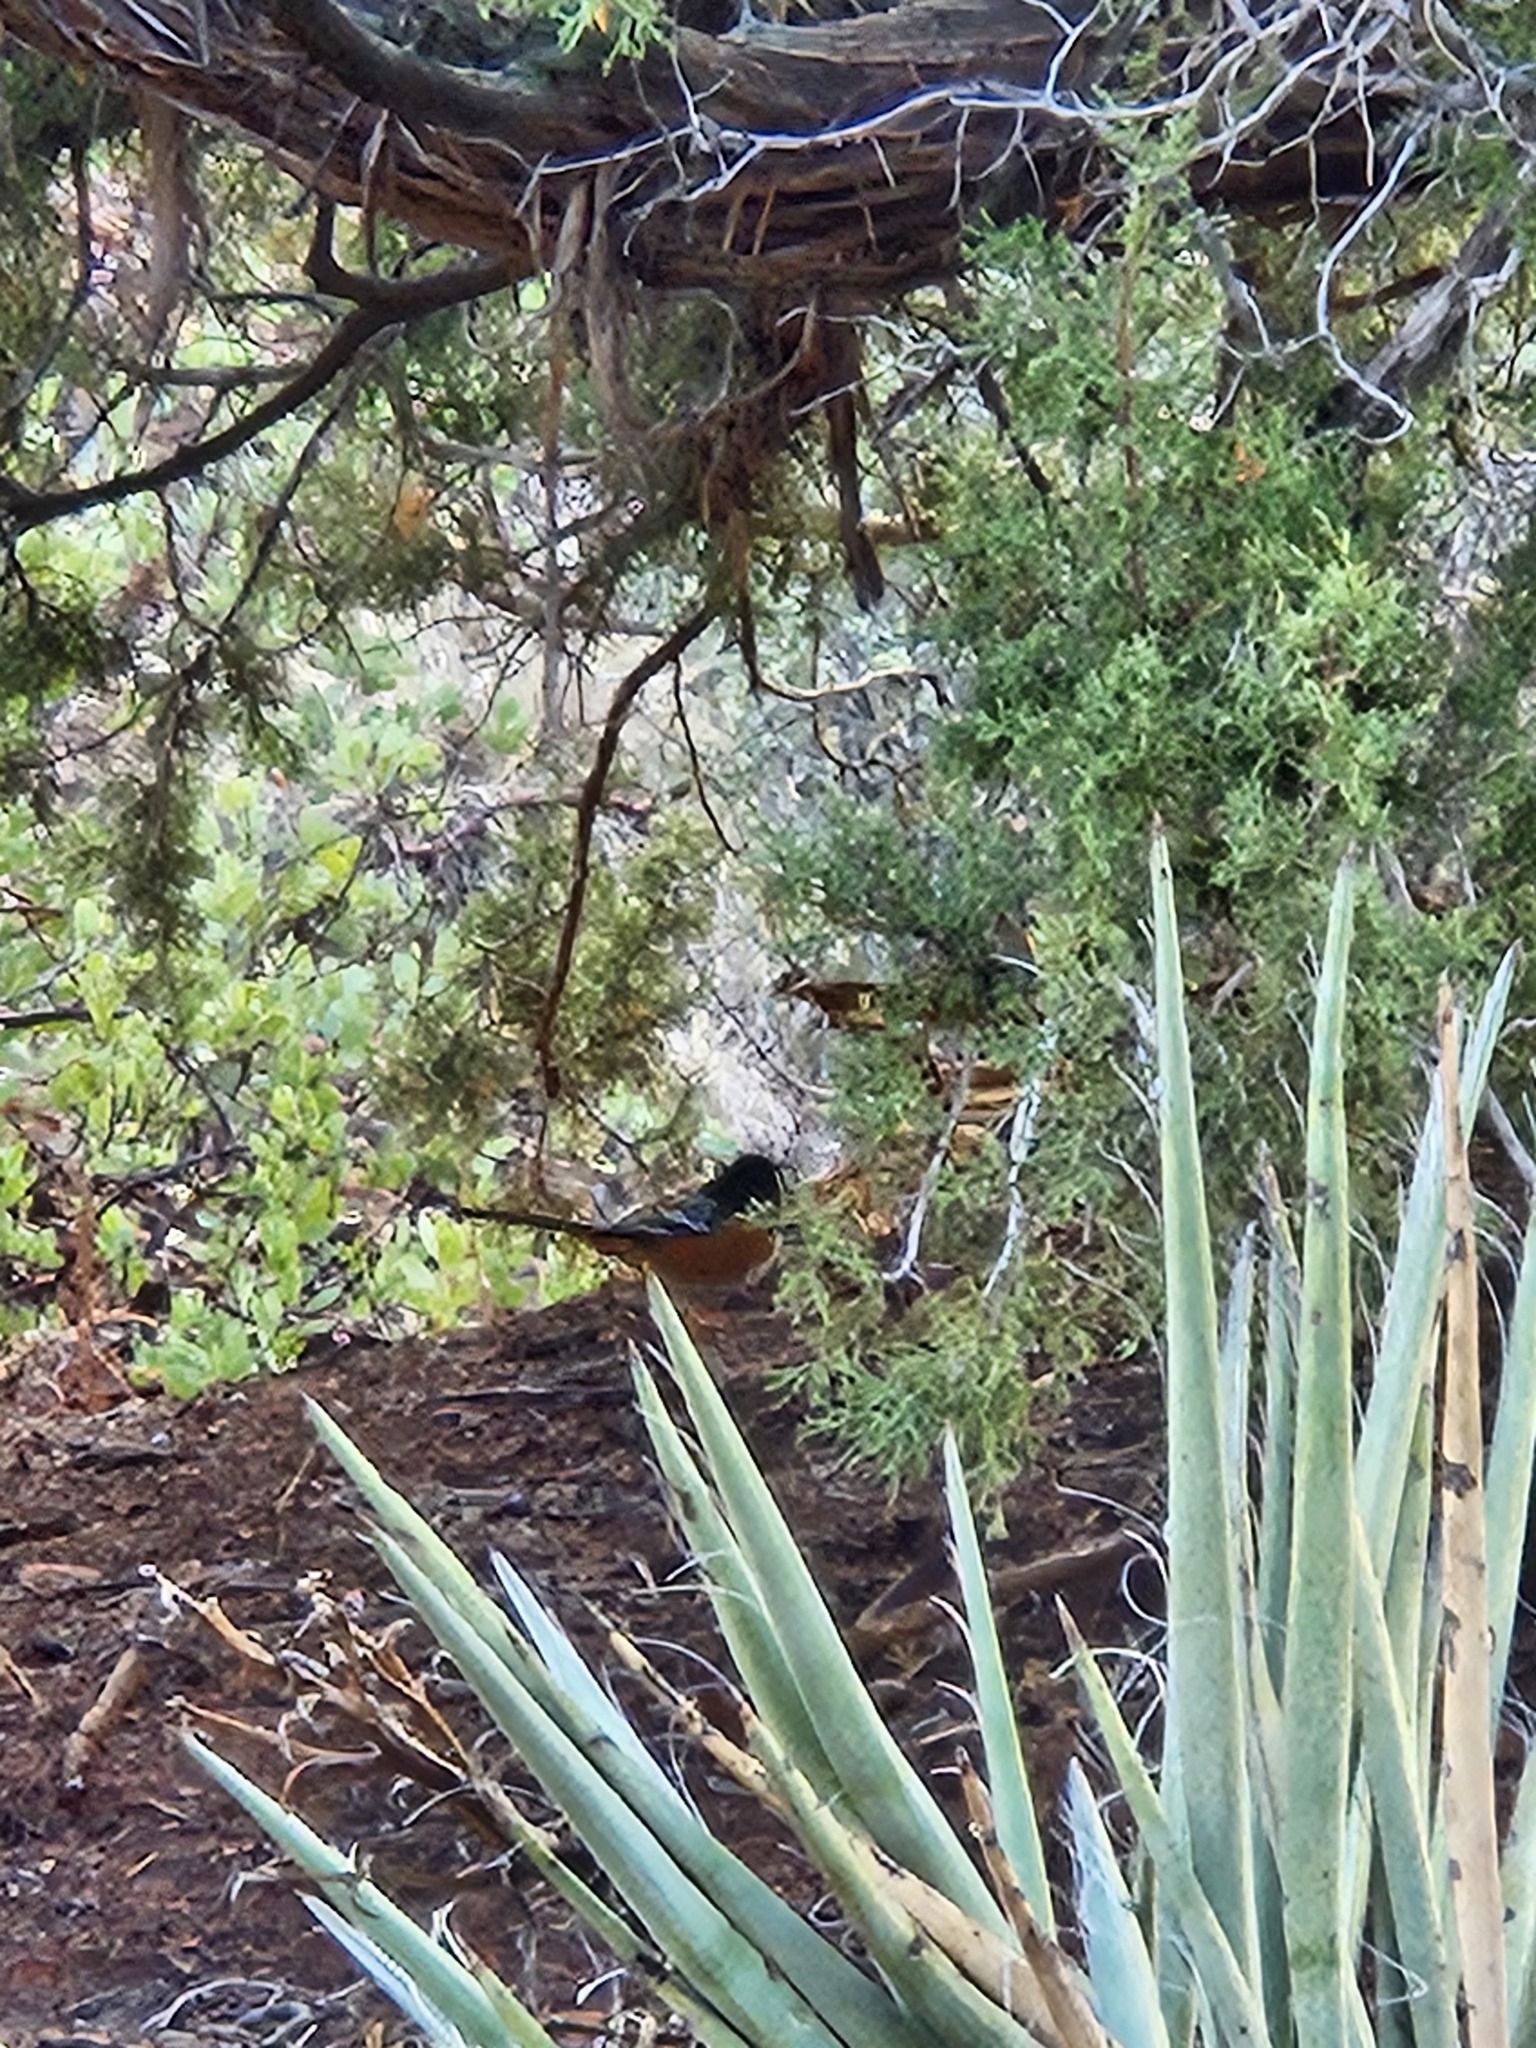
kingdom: Animalia
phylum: Chordata
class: Aves
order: Passeriformes
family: Passerellidae
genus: Pipilo
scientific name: Pipilo maculatus
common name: Spotted towhee
